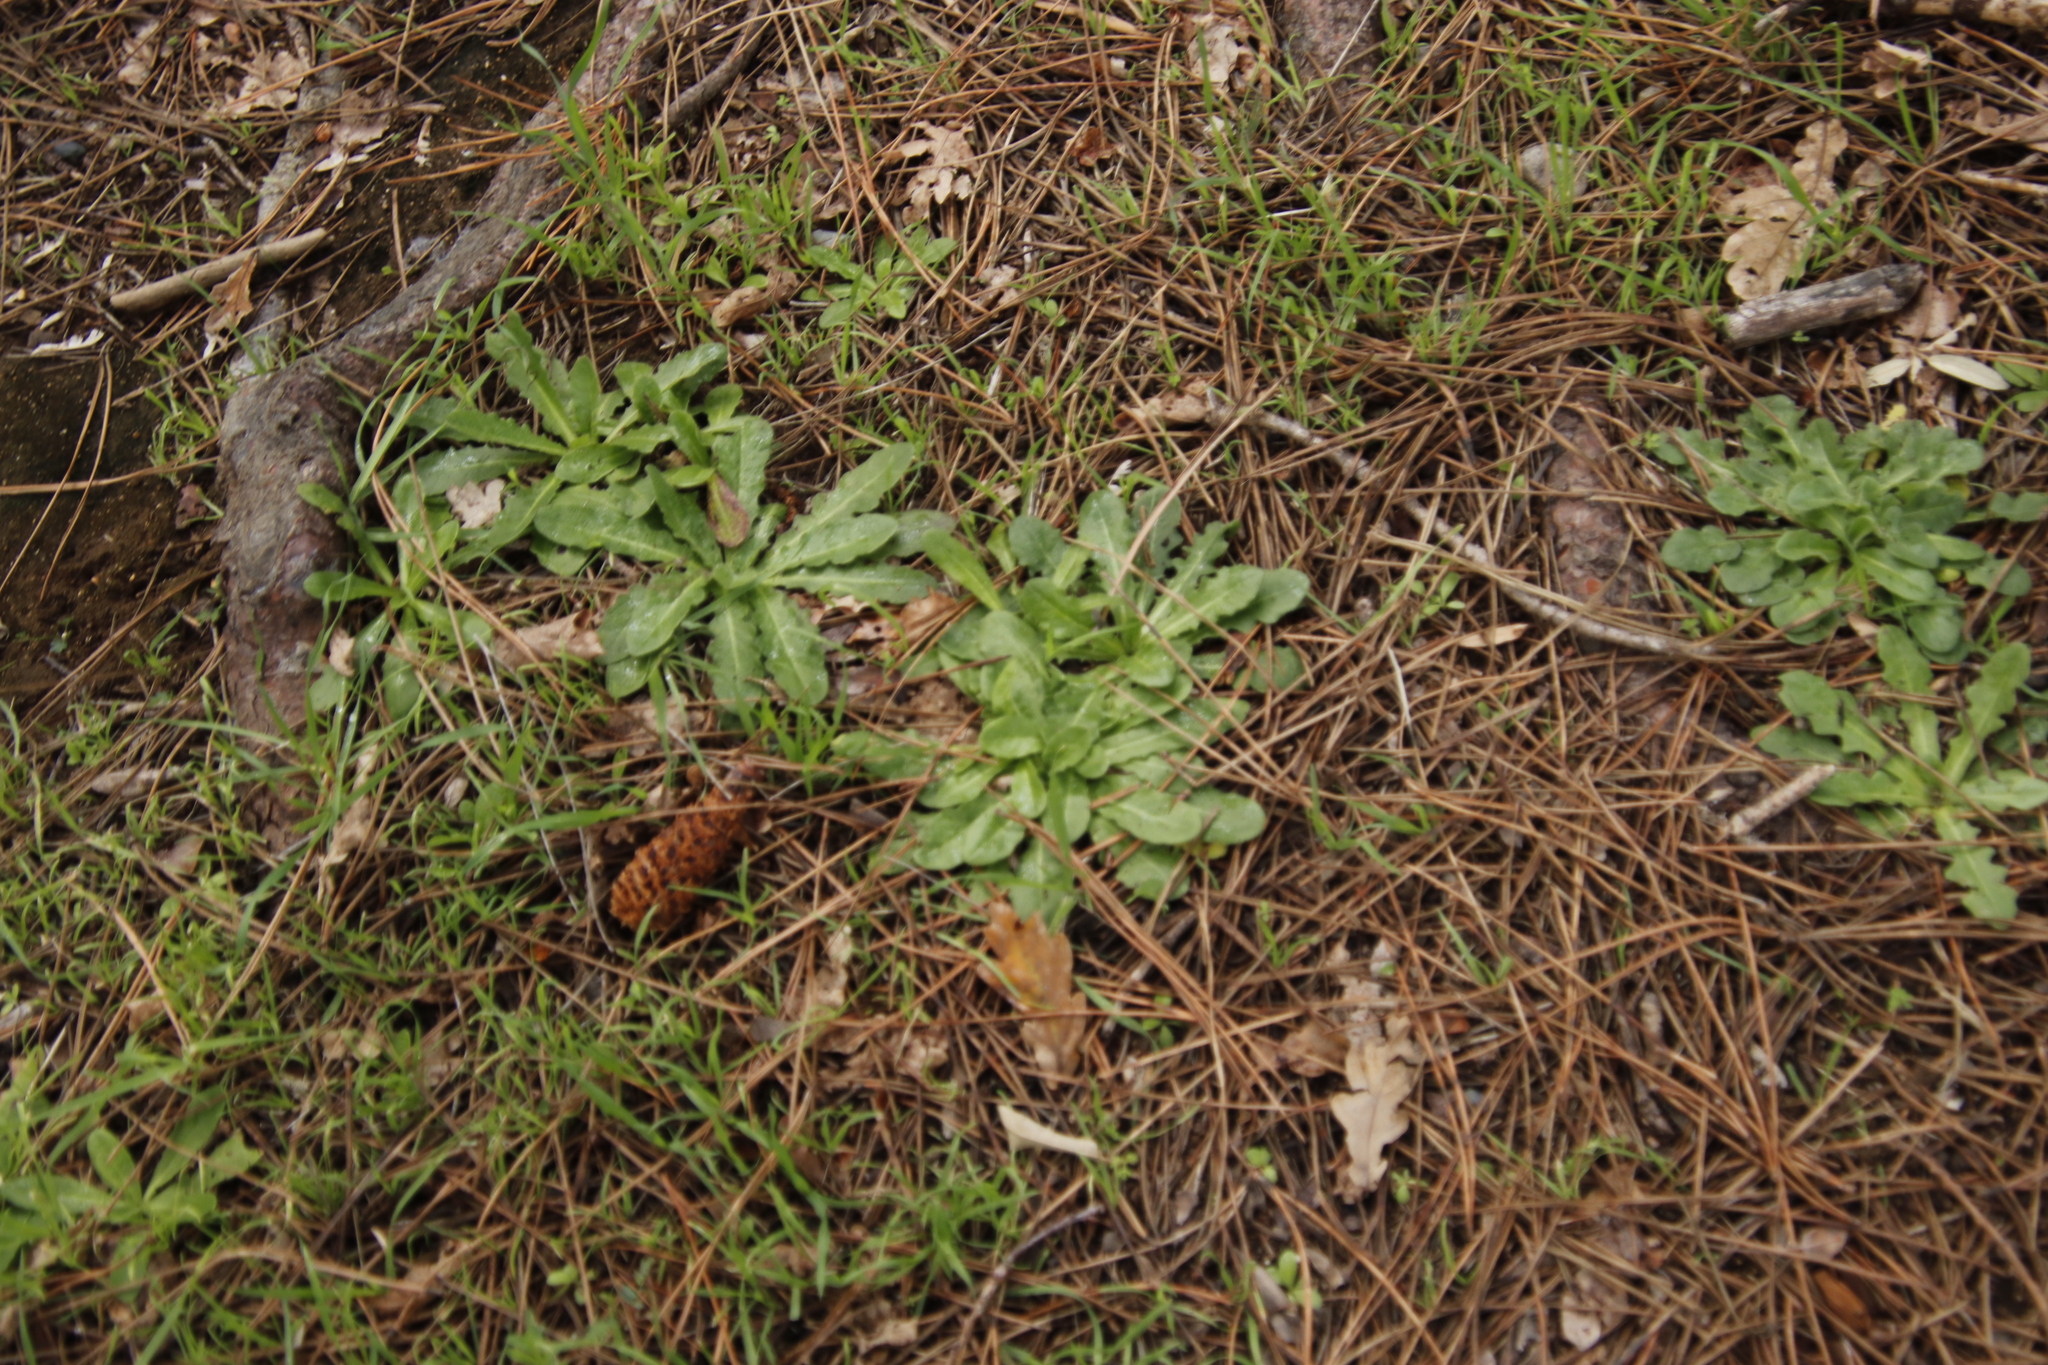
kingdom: Plantae
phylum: Tracheophyta
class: Magnoliopsida
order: Asterales
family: Asteraceae
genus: Hypochaeris
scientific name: Hypochaeris radicata
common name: Flatweed
